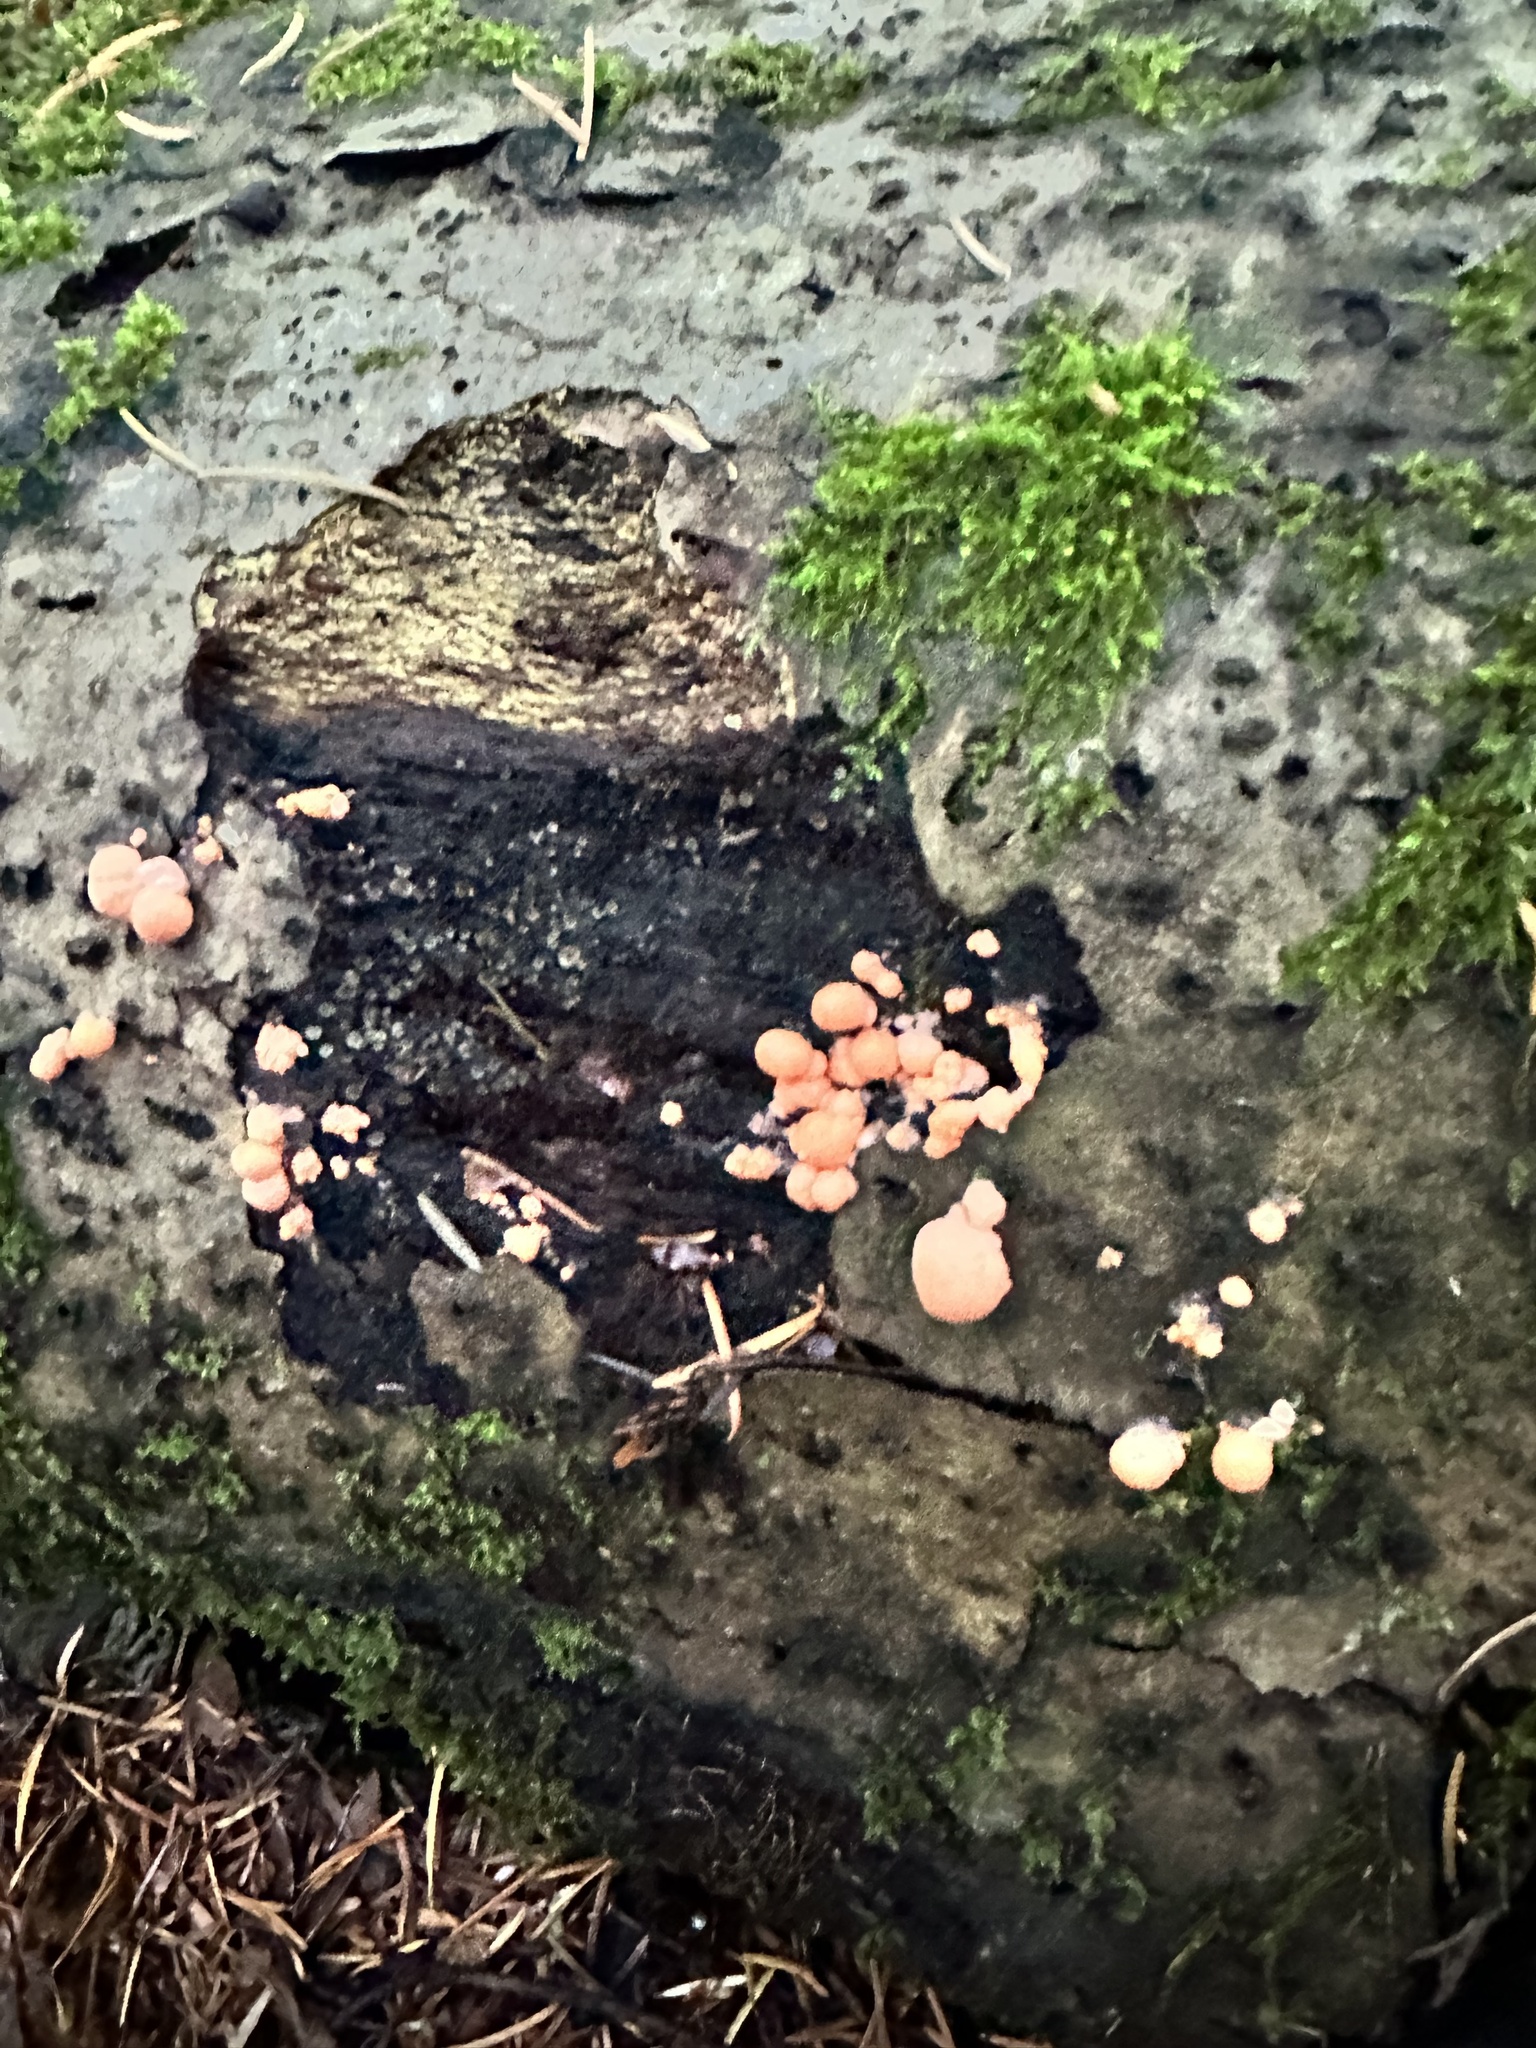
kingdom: Protozoa
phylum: Mycetozoa
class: Myxomycetes
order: Cribrariales
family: Tubiferaceae
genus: Lycogala
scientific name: Lycogala epidendrum
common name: Wolf's milk
